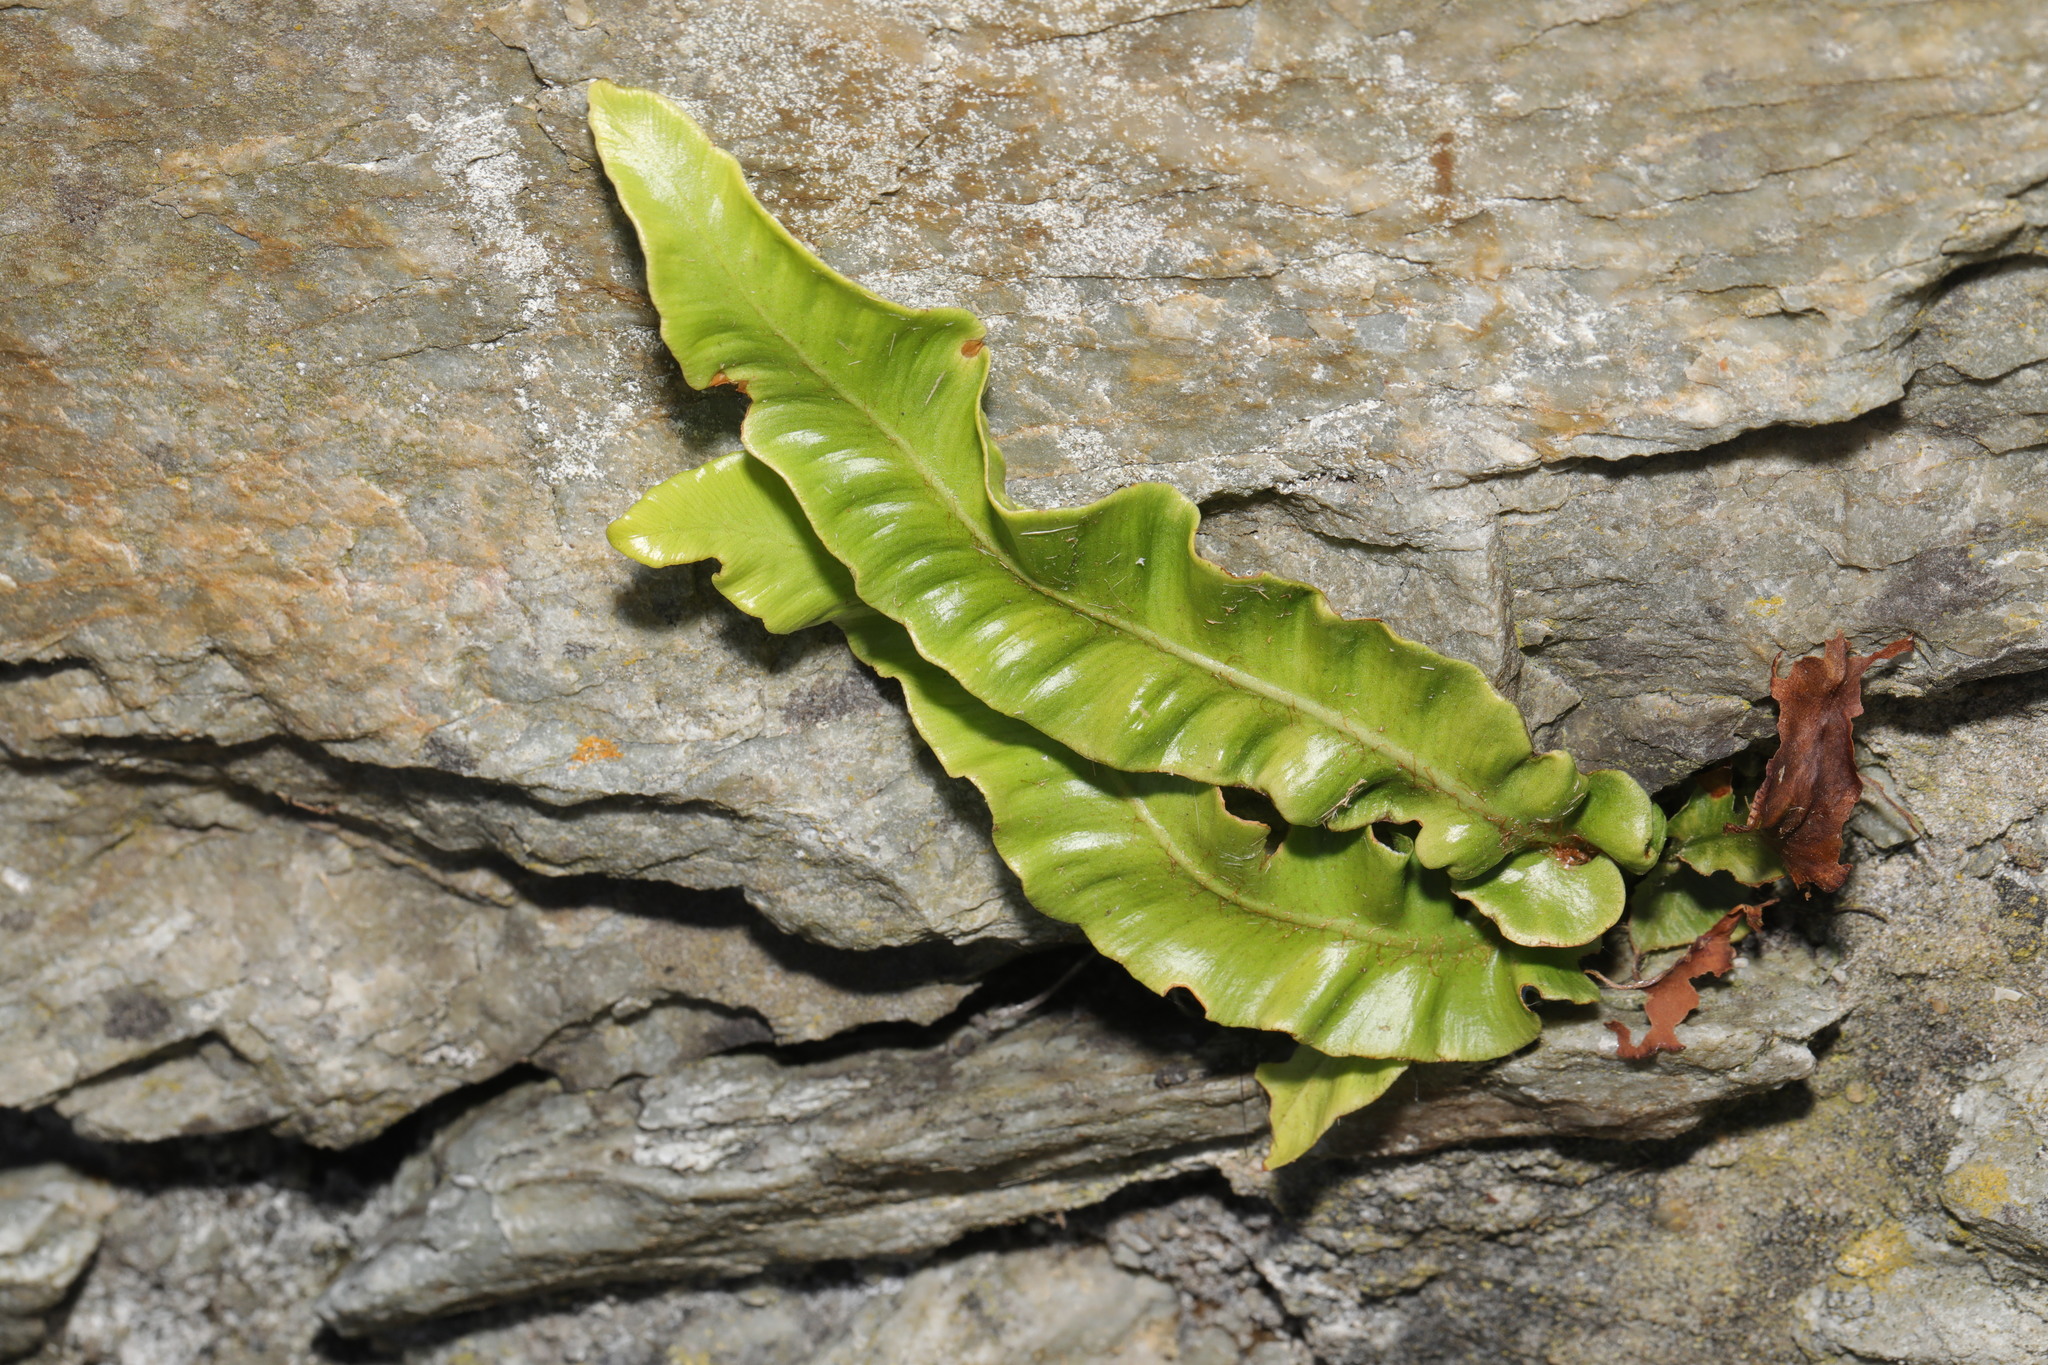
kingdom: Plantae
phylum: Tracheophyta
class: Polypodiopsida
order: Polypodiales
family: Aspleniaceae
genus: Asplenium
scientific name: Asplenium scolopendrium
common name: Hart's-tongue fern
